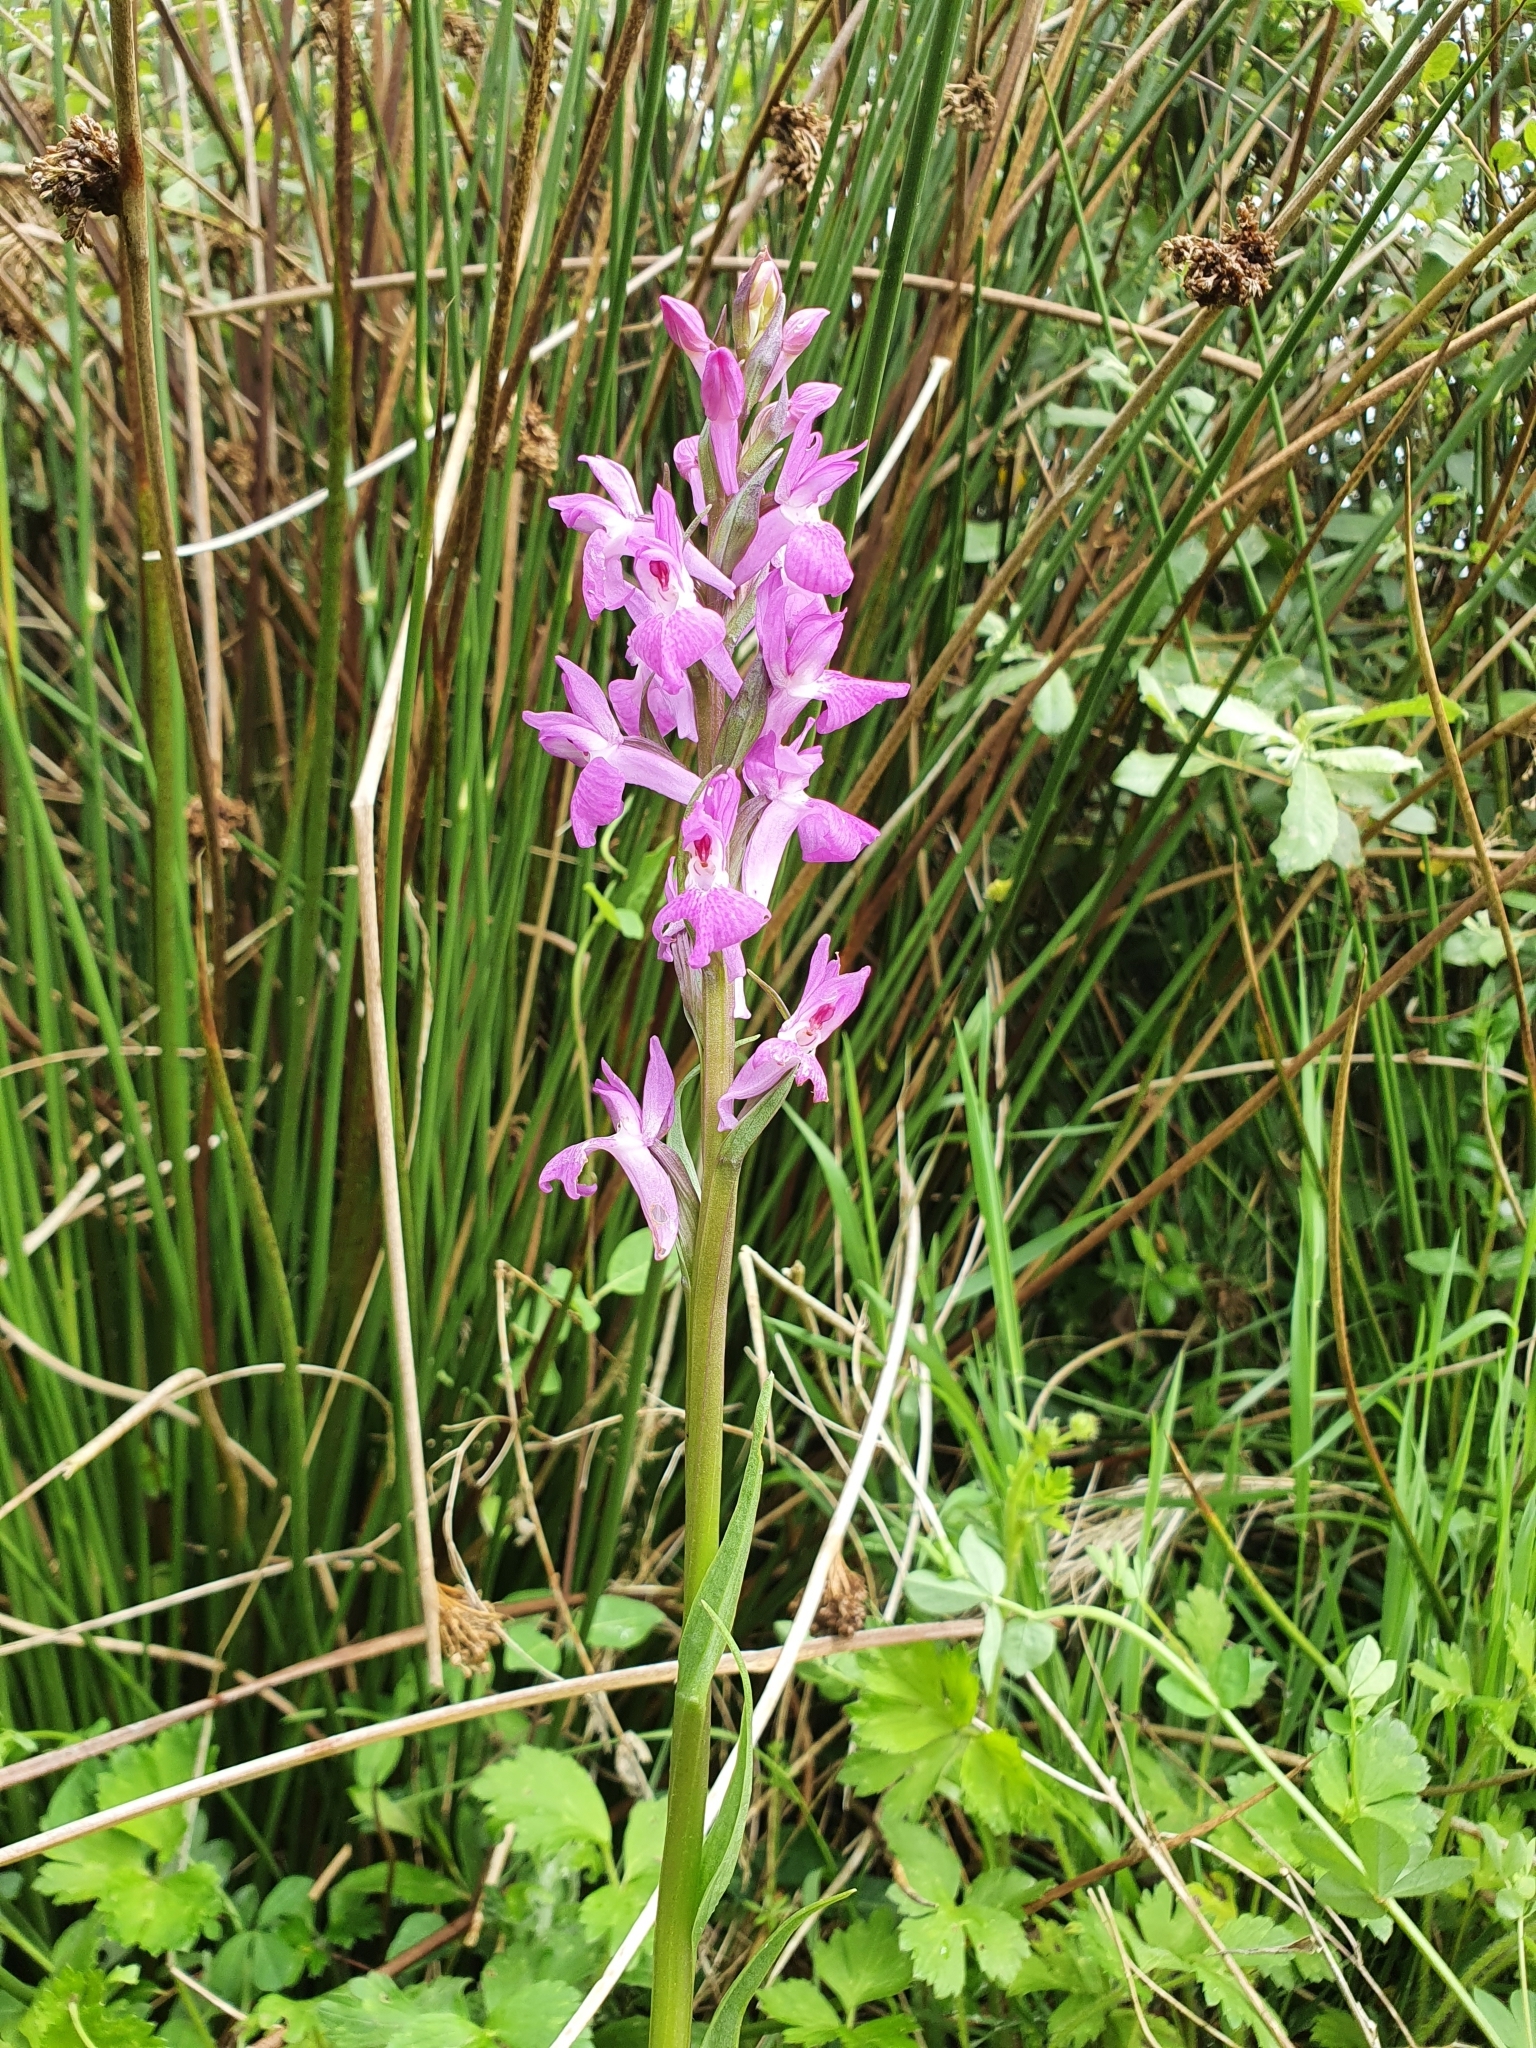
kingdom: Plantae
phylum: Tracheophyta
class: Liliopsida
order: Asparagales
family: Orchidaceae
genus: Dactylorhiza
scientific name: Dactylorhiza elata
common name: Stately dactylorhiza
